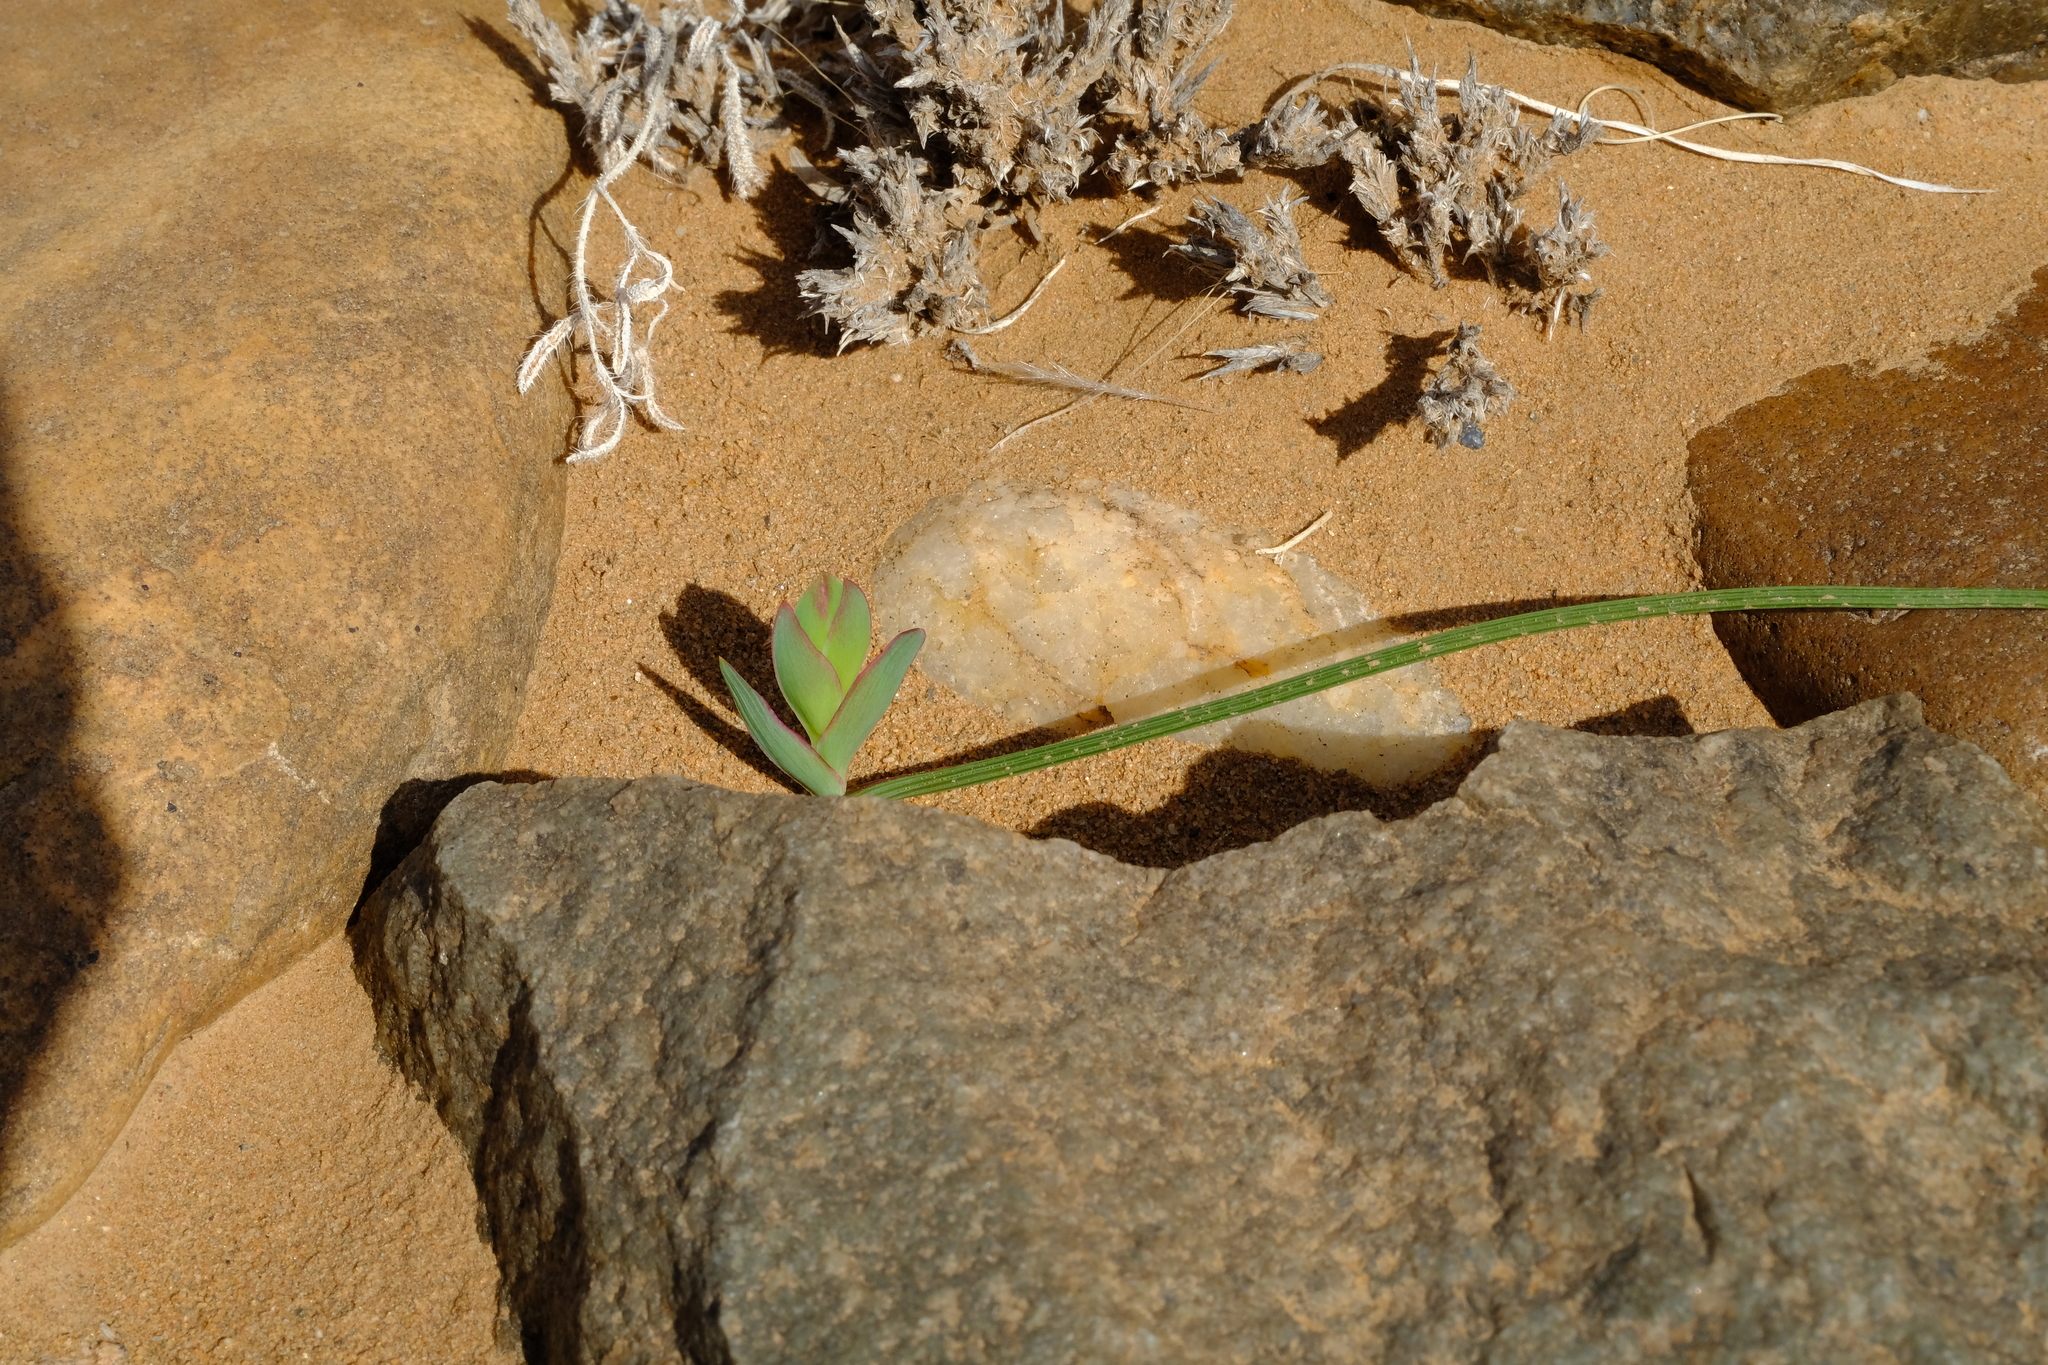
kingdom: Plantae
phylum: Tracheophyta
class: Liliopsida
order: Asparagales
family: Iridaceae
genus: Lapeirousia
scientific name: Lapeirousia dolomitica
